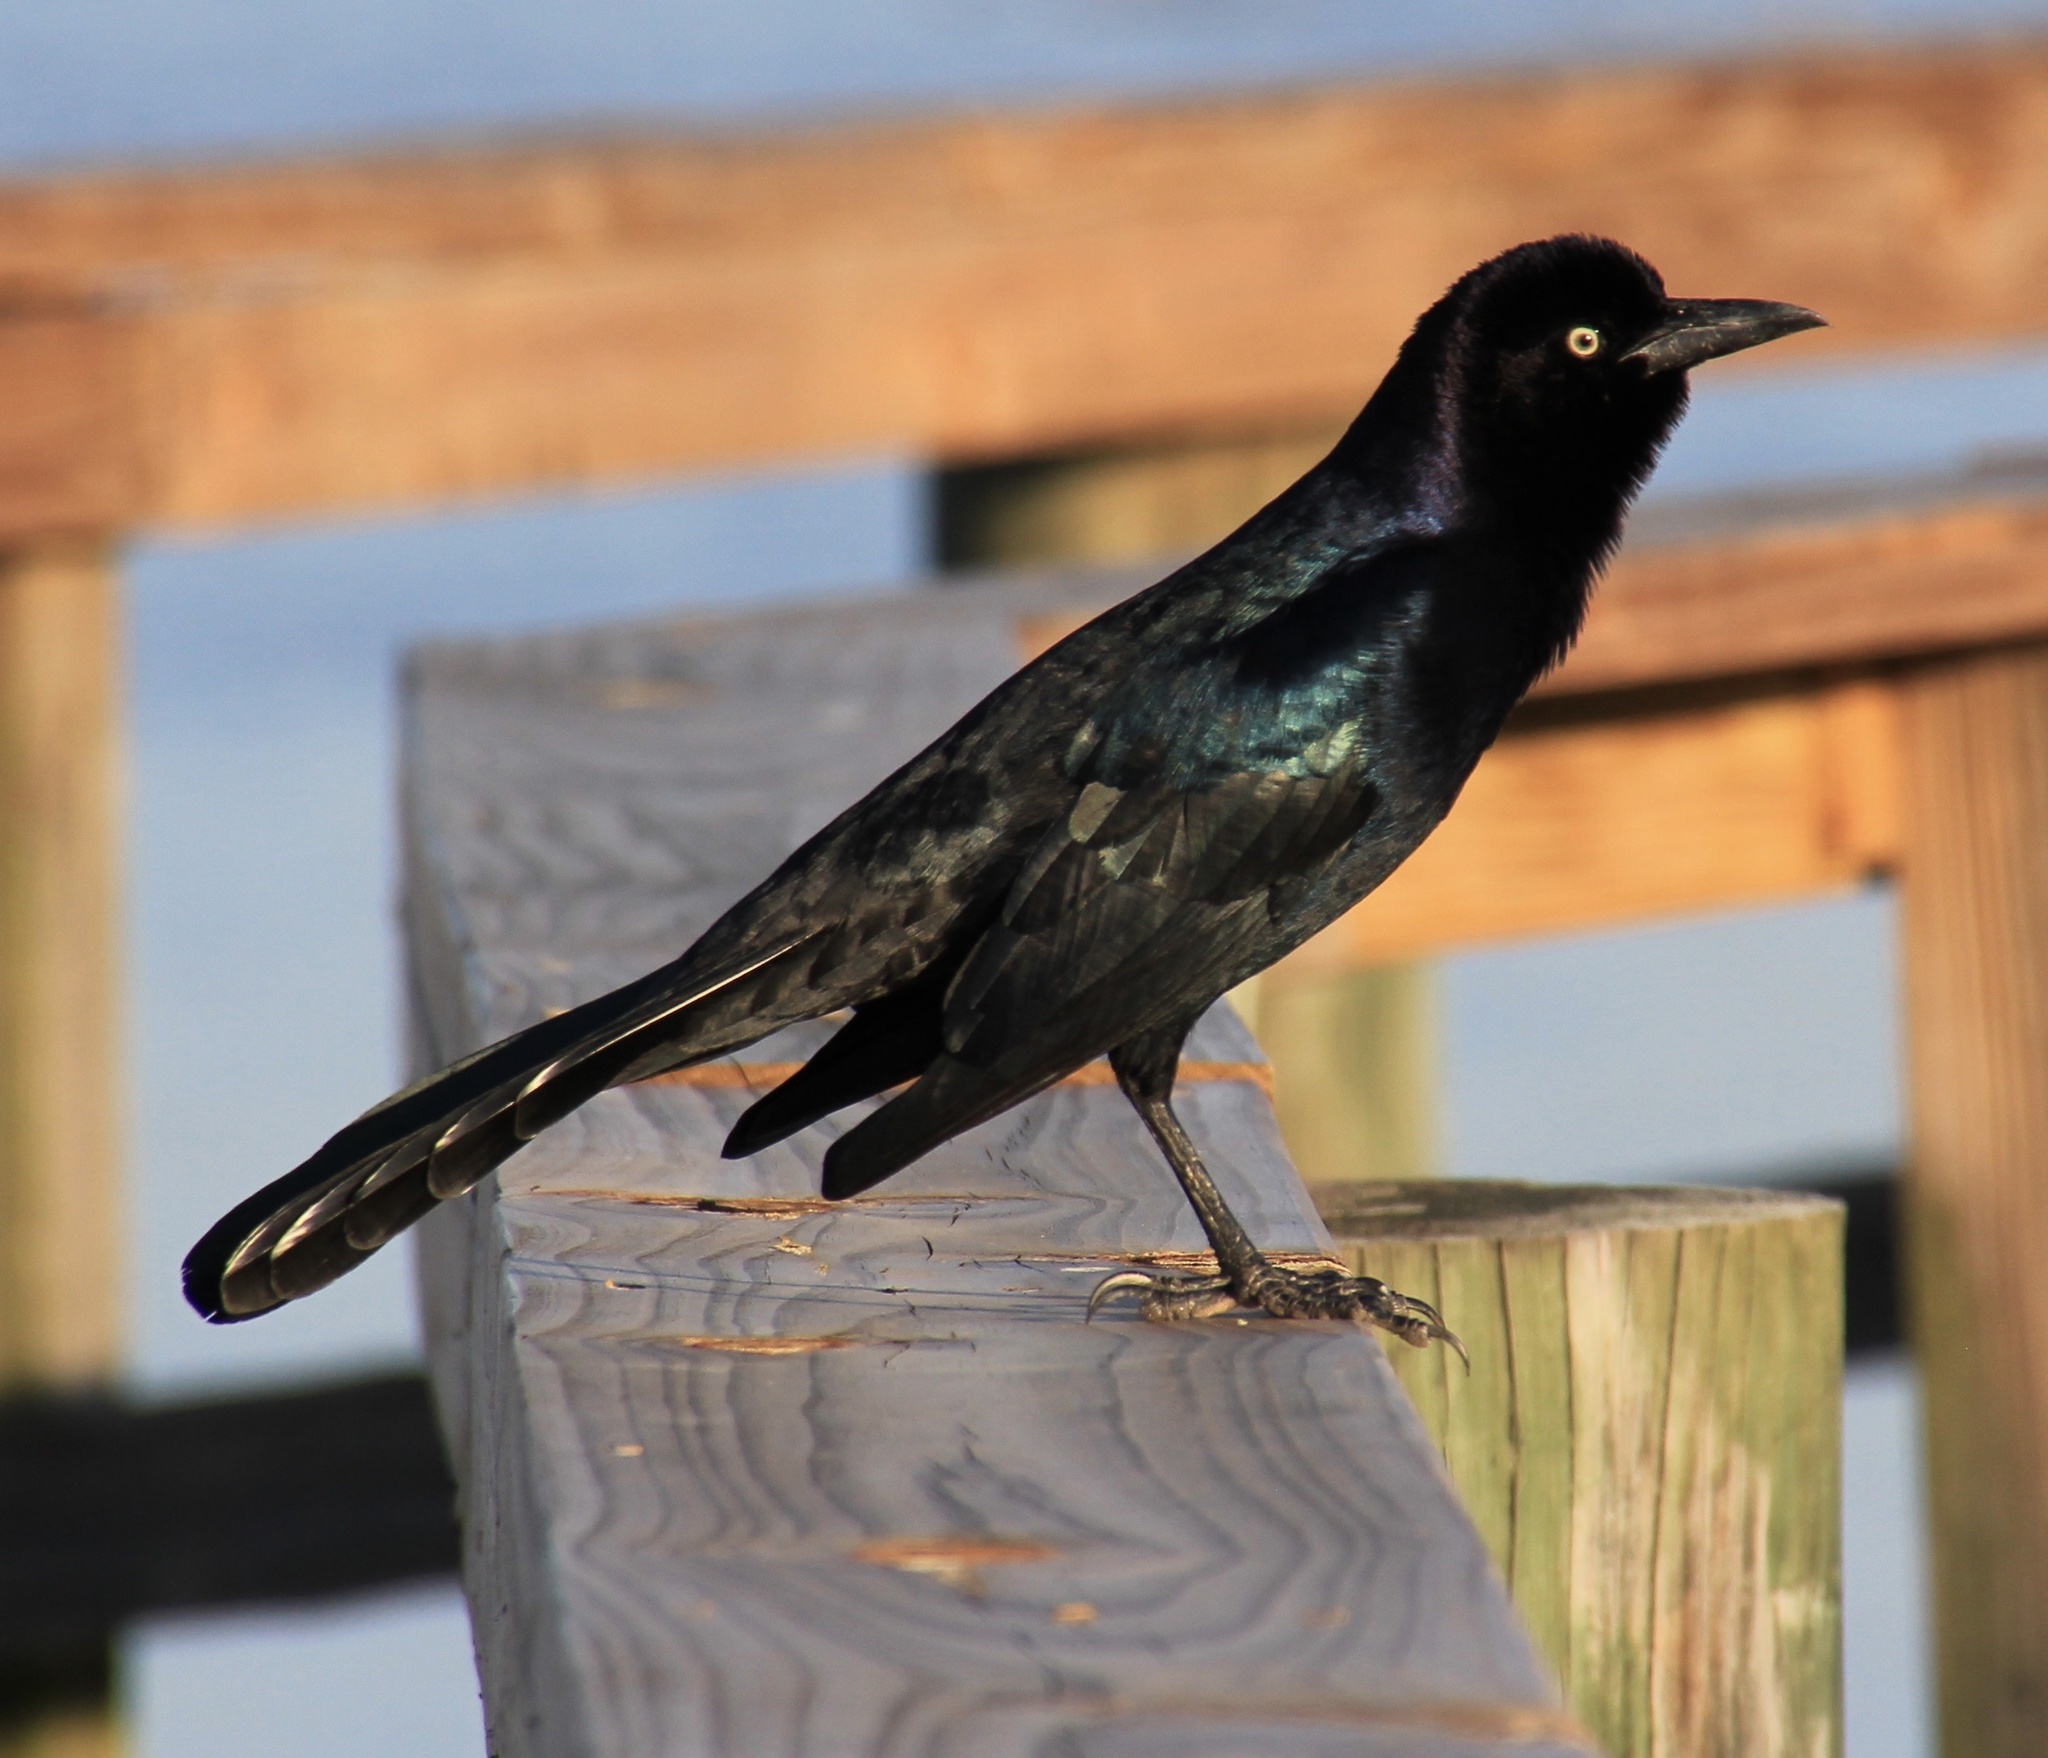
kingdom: Animalia
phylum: Chordata
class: Aves
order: Passeriformes
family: Icteridae
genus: Quiscalus
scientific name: Quiscalus major
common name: Boat-tailed grackle
